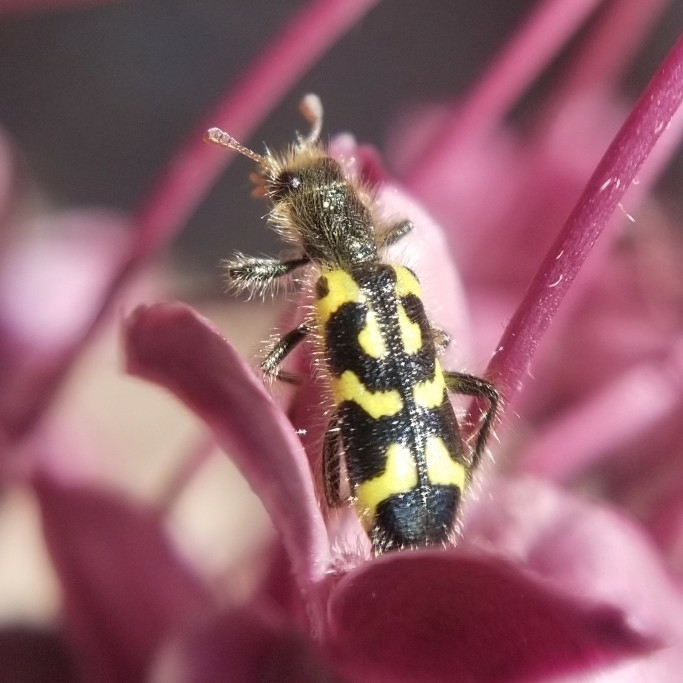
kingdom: Animalia
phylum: Arthropoda
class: Insecta
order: Coleoptera
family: Cleridae
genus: Trichodes
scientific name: Trichodes ornatus
